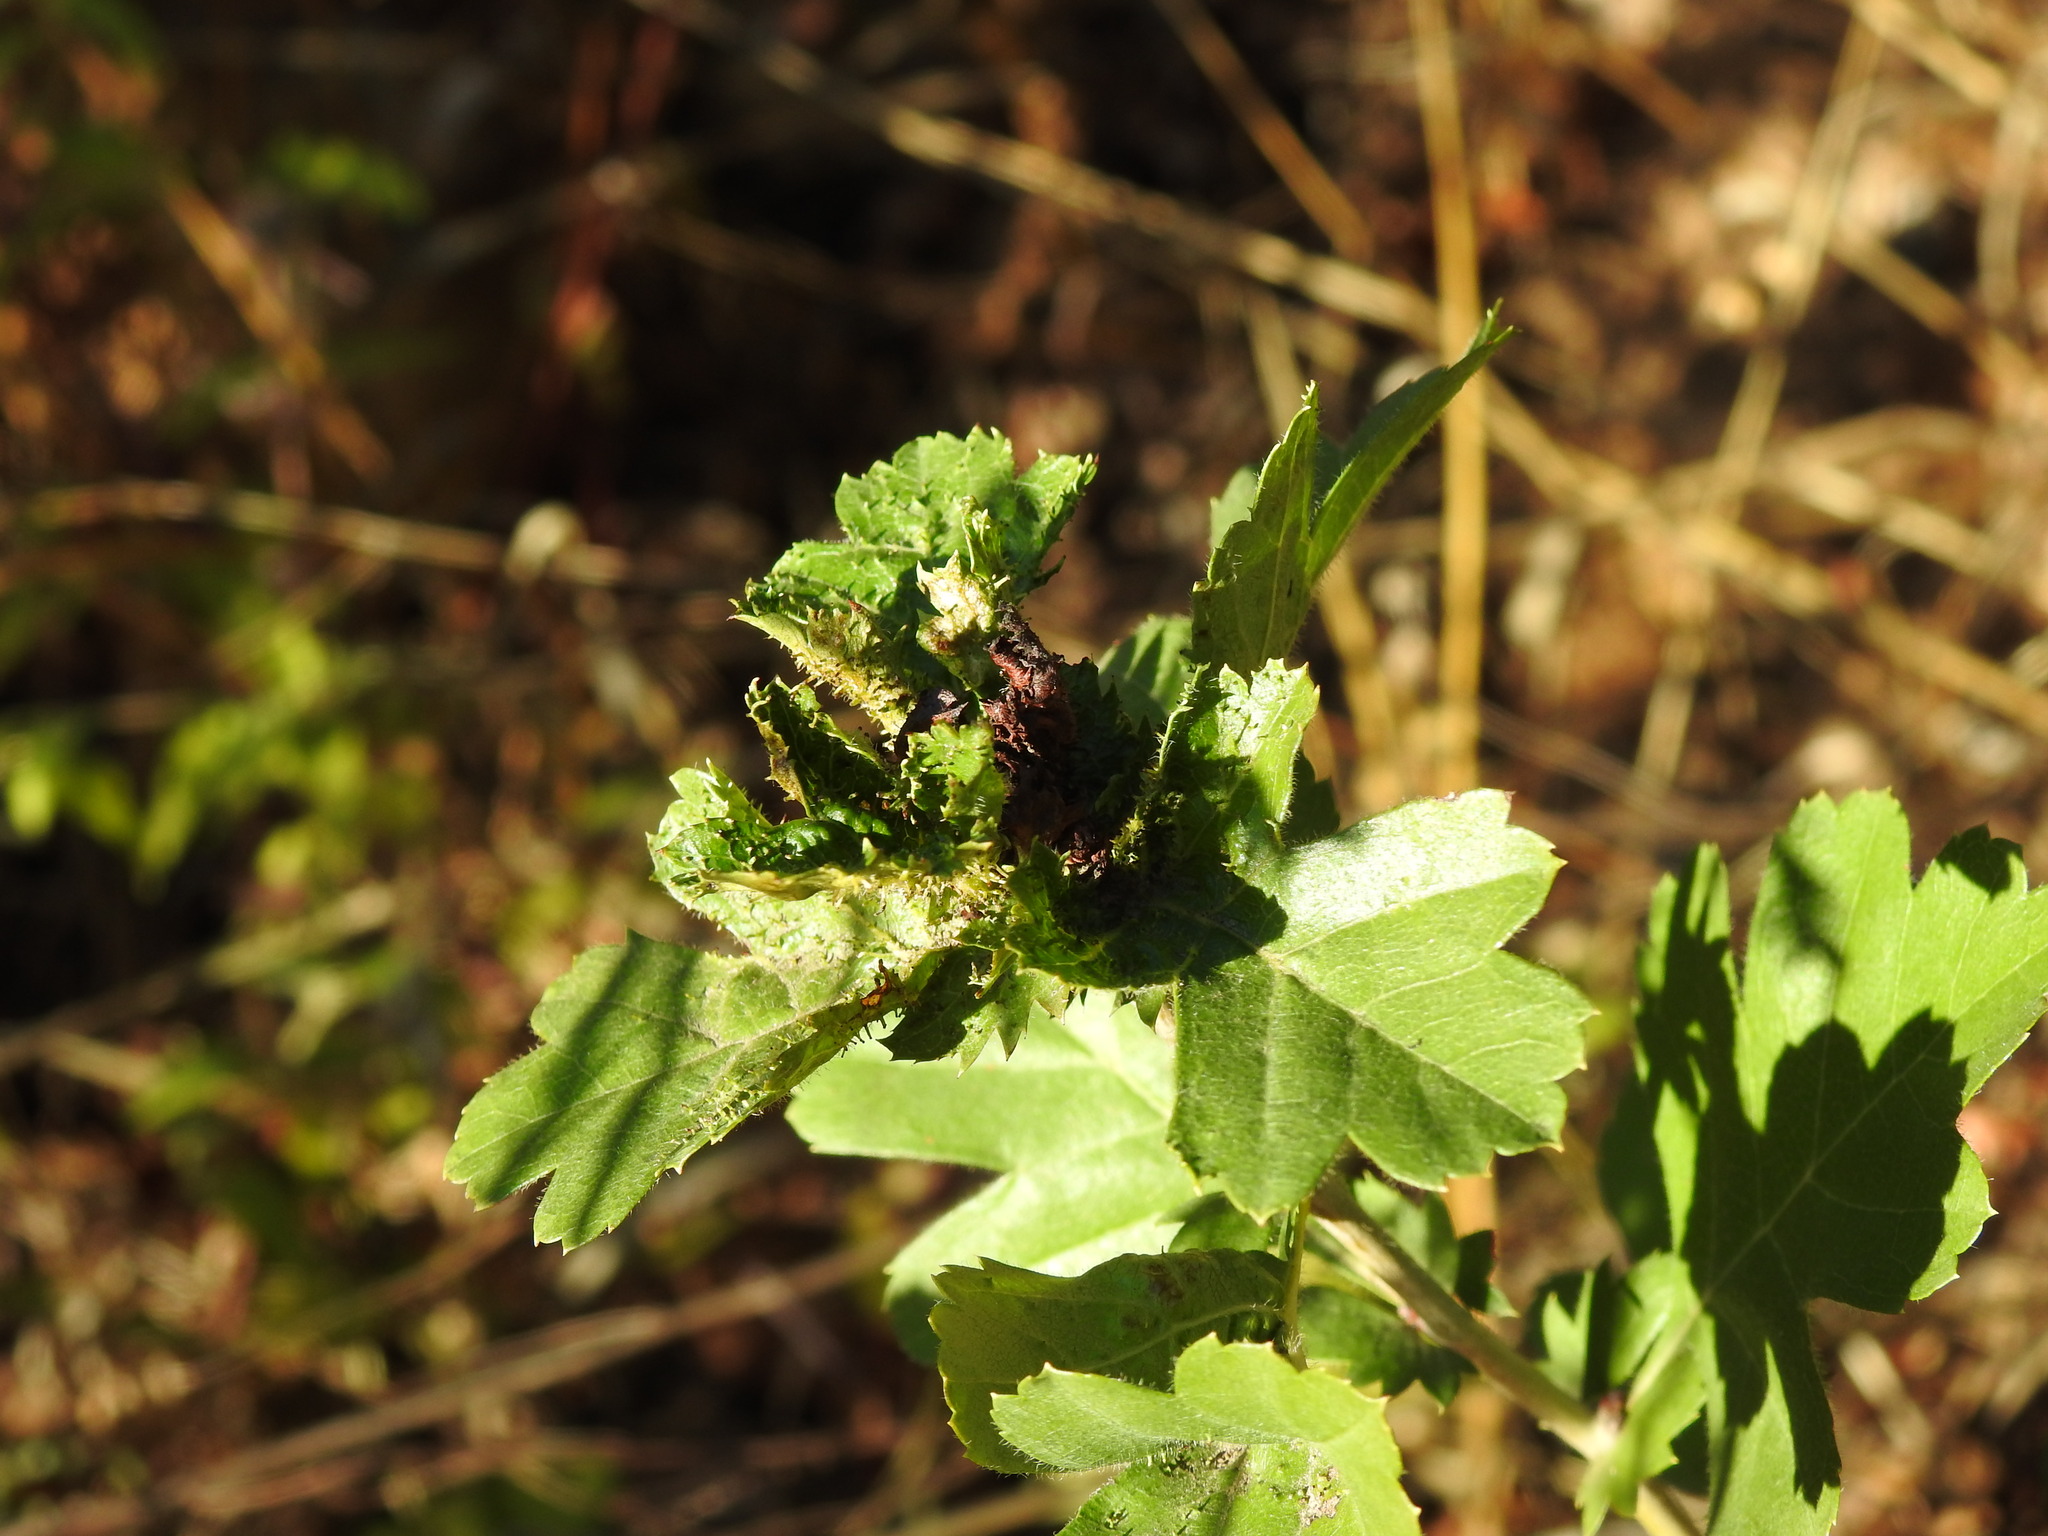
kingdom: Animalia
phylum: Arthropoda
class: Insecta
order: Diptera
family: Cecidomyiidae
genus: Dasineura
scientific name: Dasineura crataegi
